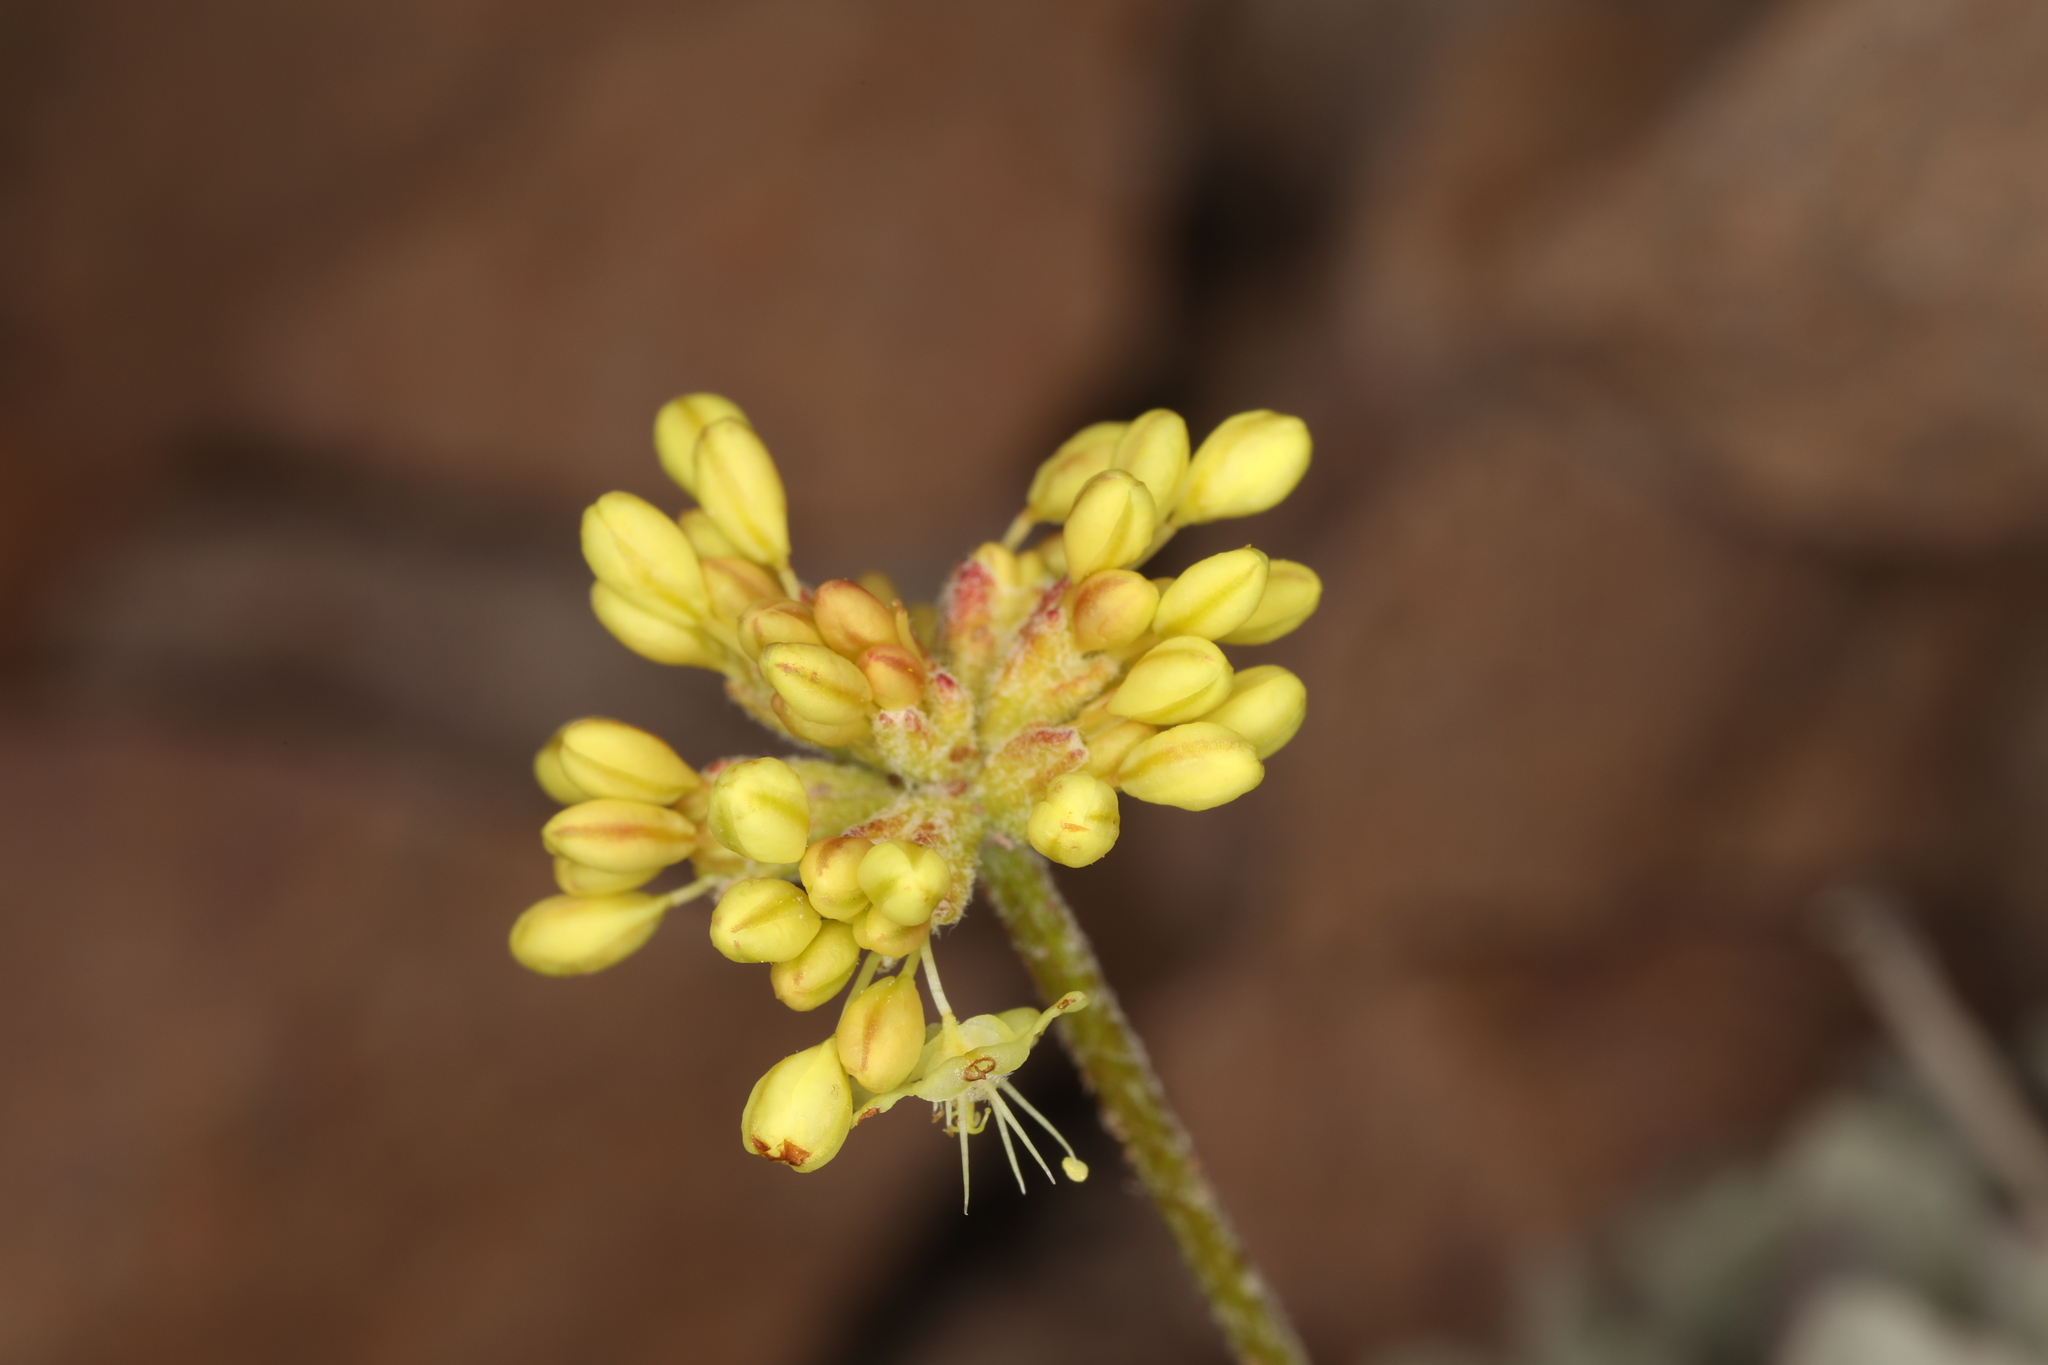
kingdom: Plantae
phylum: Tracheophyta
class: Magnoliopsida
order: Caryophyllales
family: Polygonaceae
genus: Eriogonum
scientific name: Eriogonum ovalifolium
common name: Cushion buckwheat
